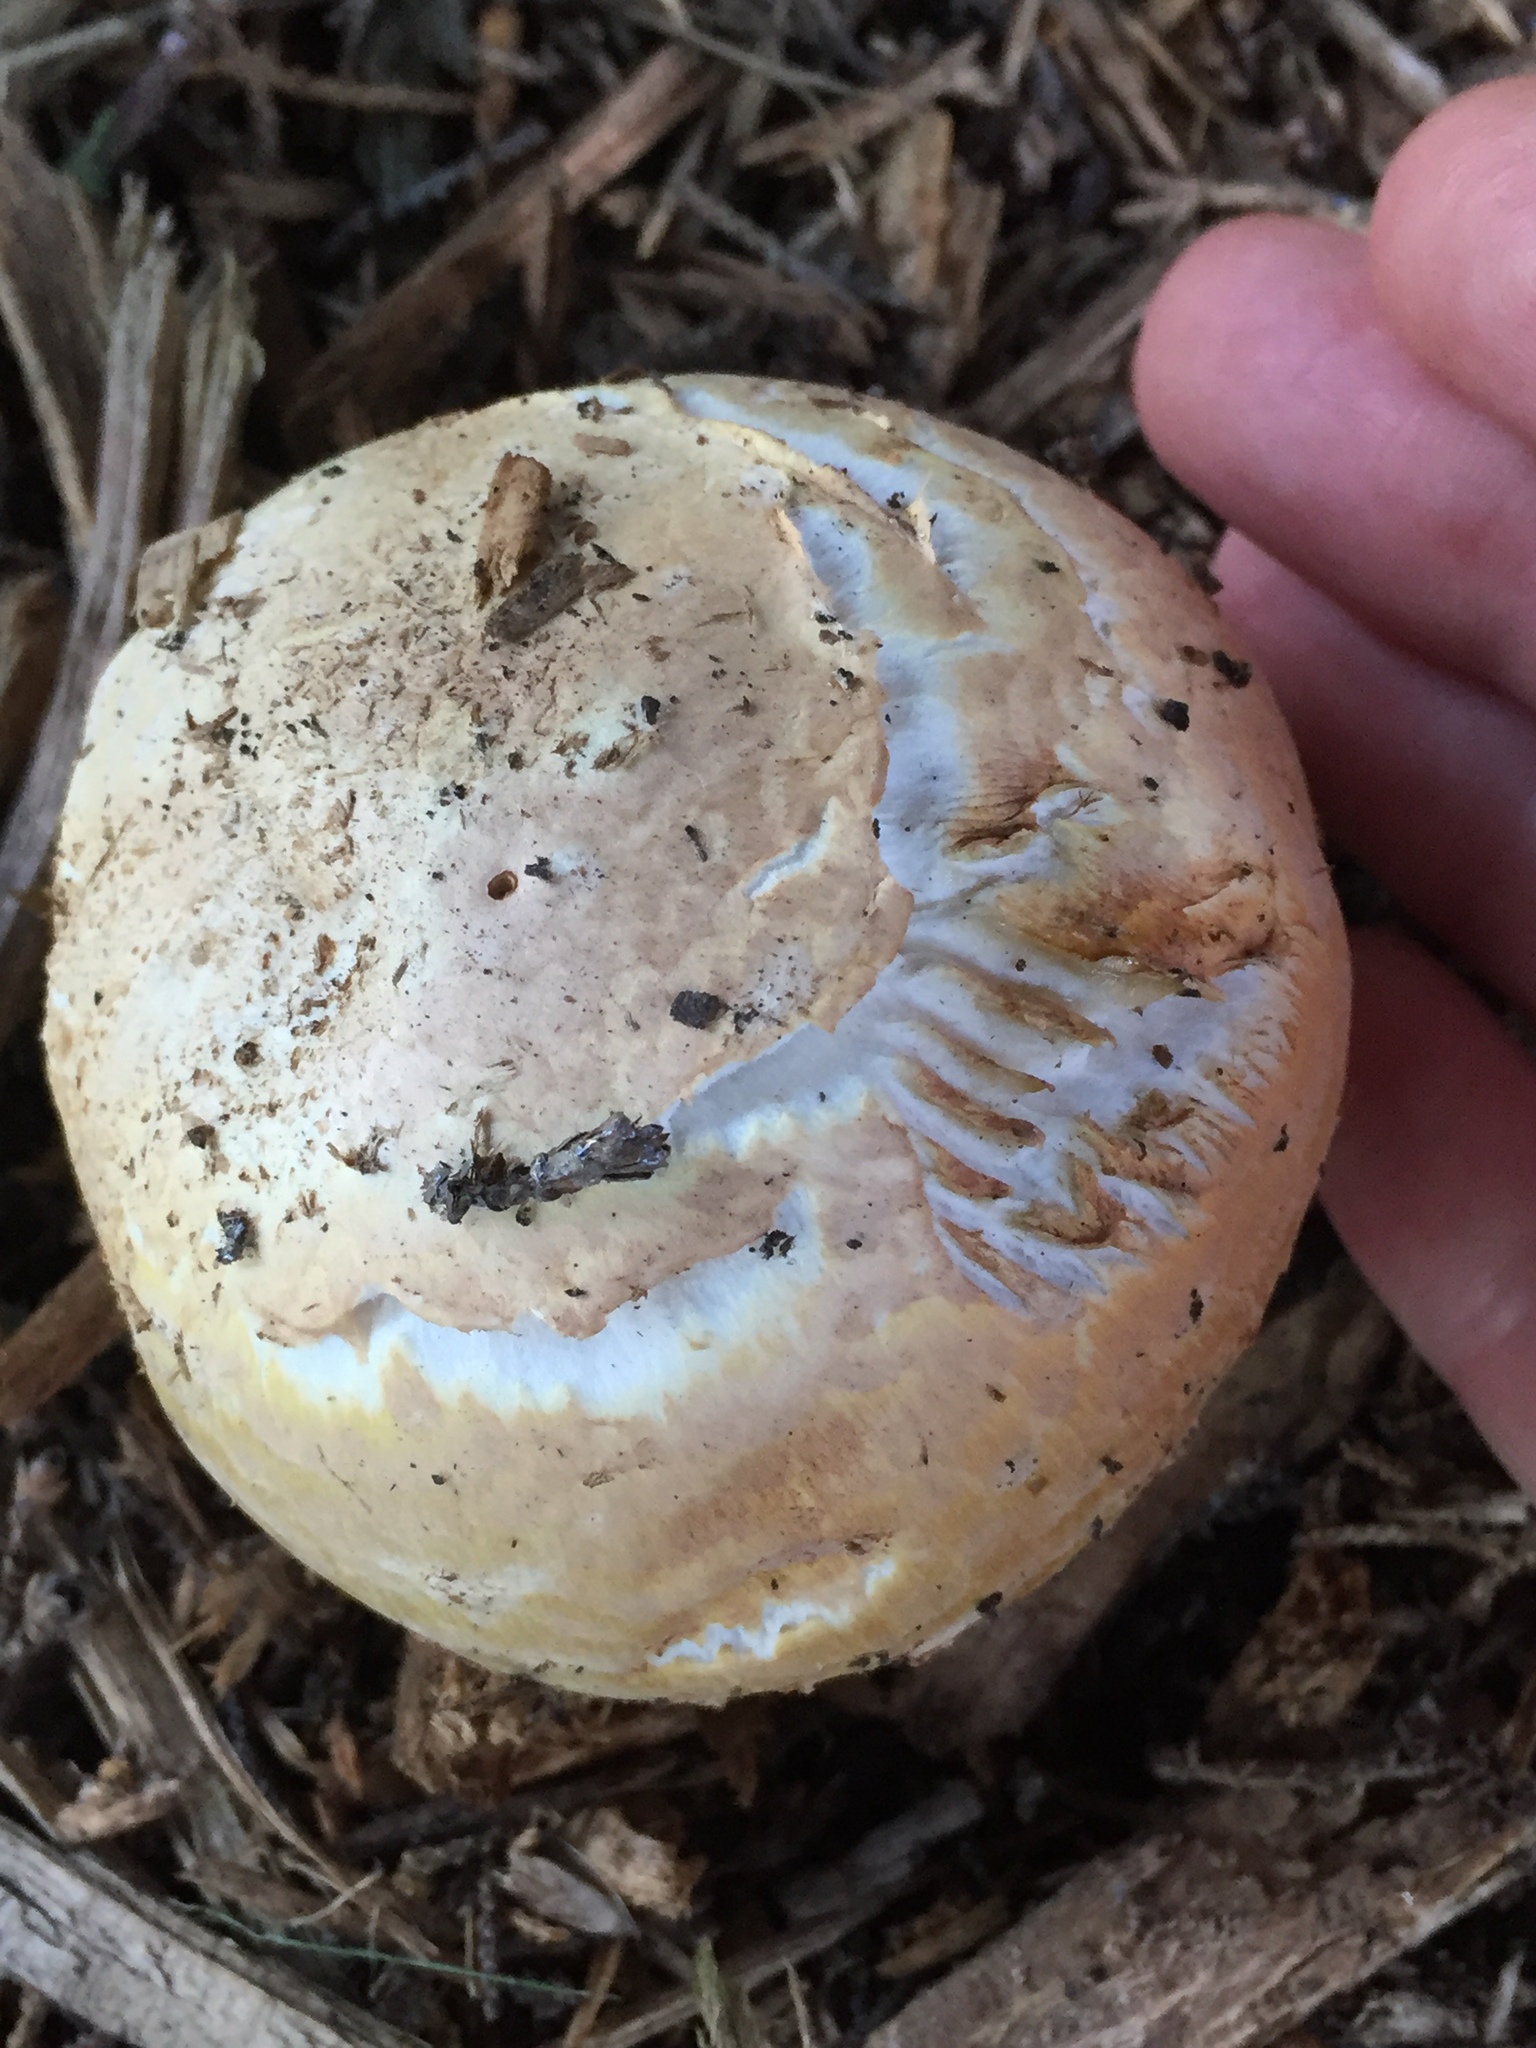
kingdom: Fungi
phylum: Basidiomycota
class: Agaricomycetes
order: Agaricales
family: Agaricaceae
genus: Agaricus
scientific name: Agaricus augustus
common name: Prince
